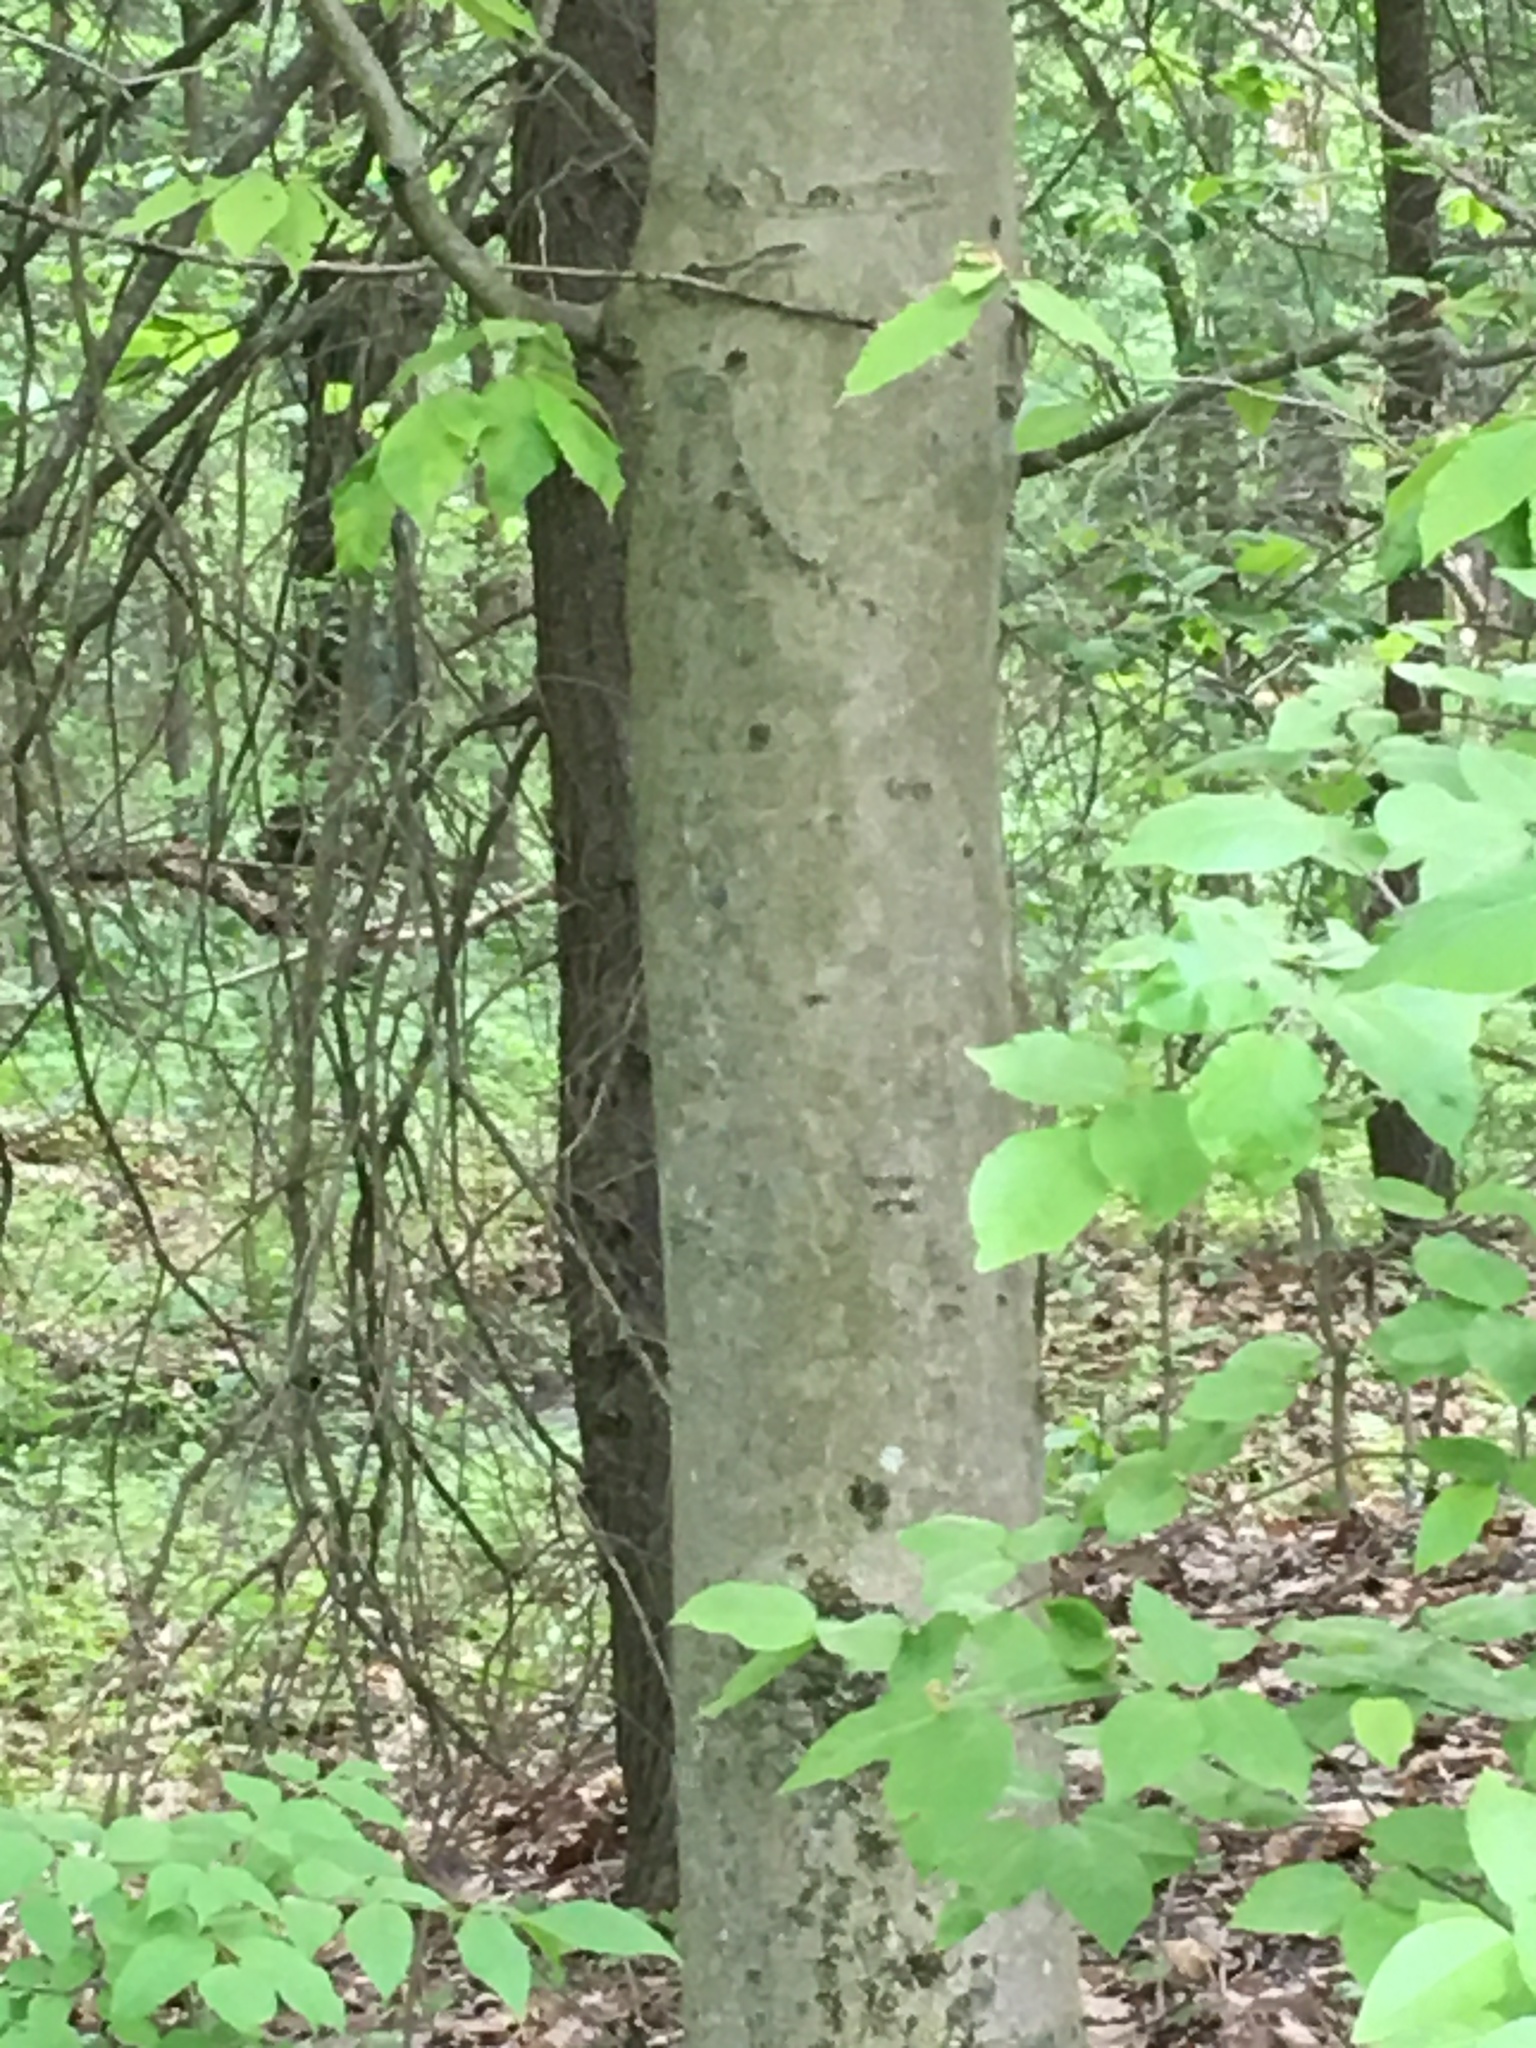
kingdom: Plantae
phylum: Tracheophyta
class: Magnoliopsida
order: Fagales
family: Fagaceae
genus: Fagus
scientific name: Fagus grandifolia
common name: American beech
